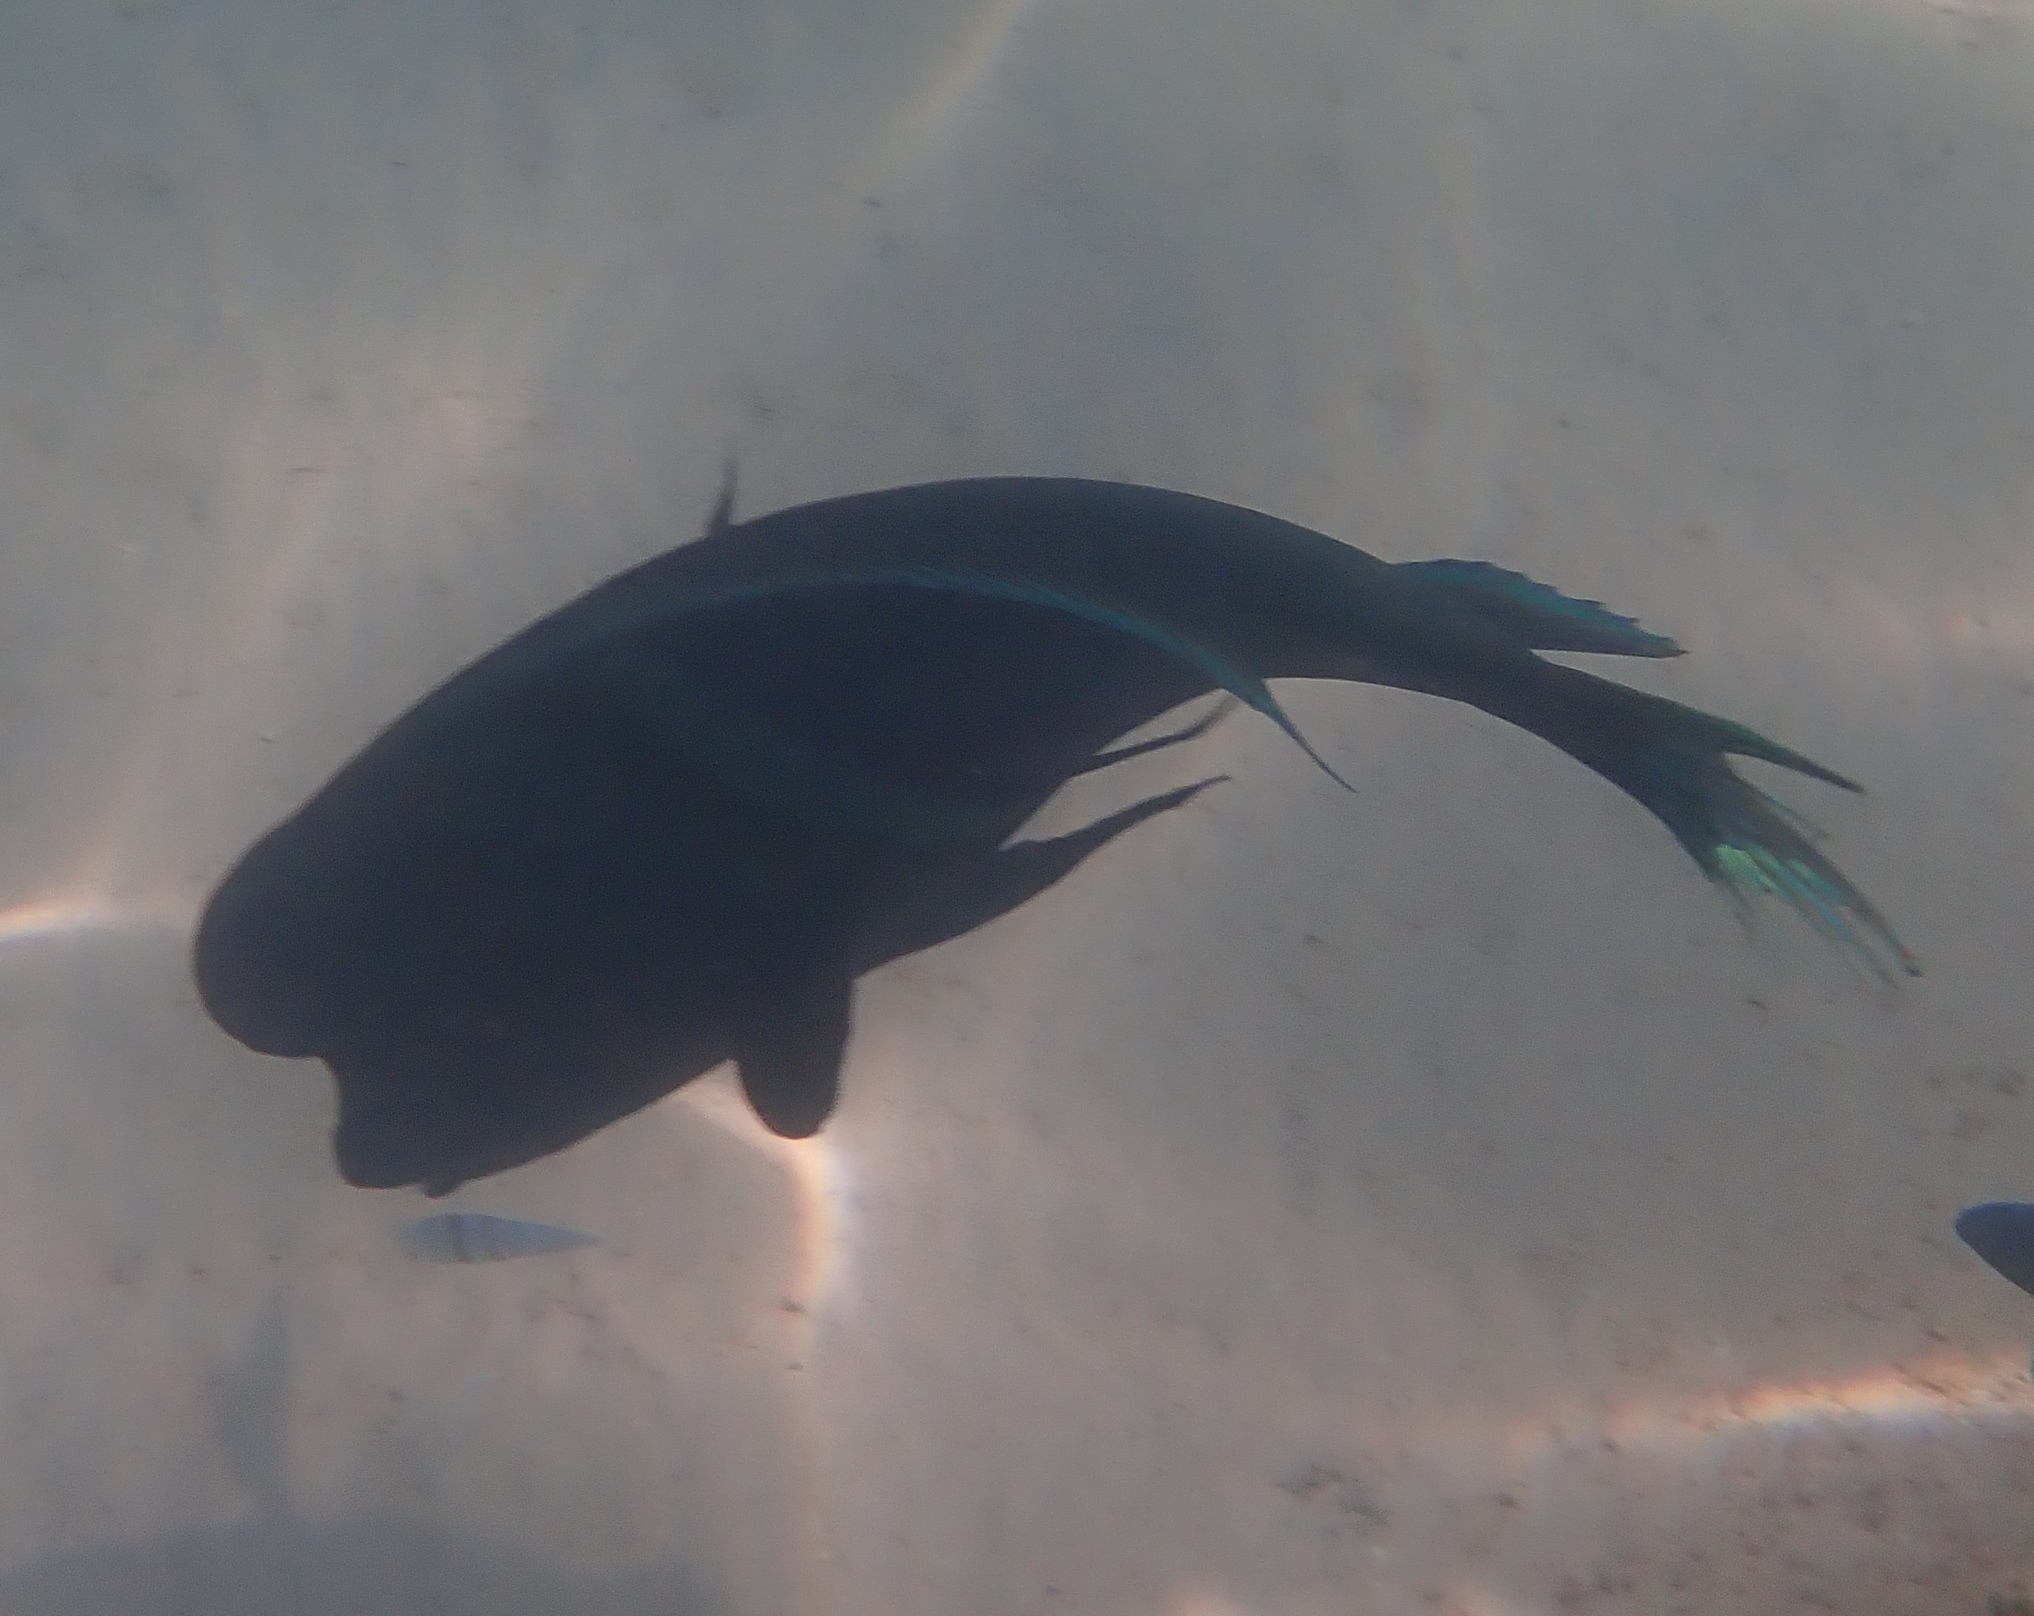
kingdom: Animalia
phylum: Chordata
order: Perciformes
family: Labridae
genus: Coris
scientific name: Coris aygula
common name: Clown coris
